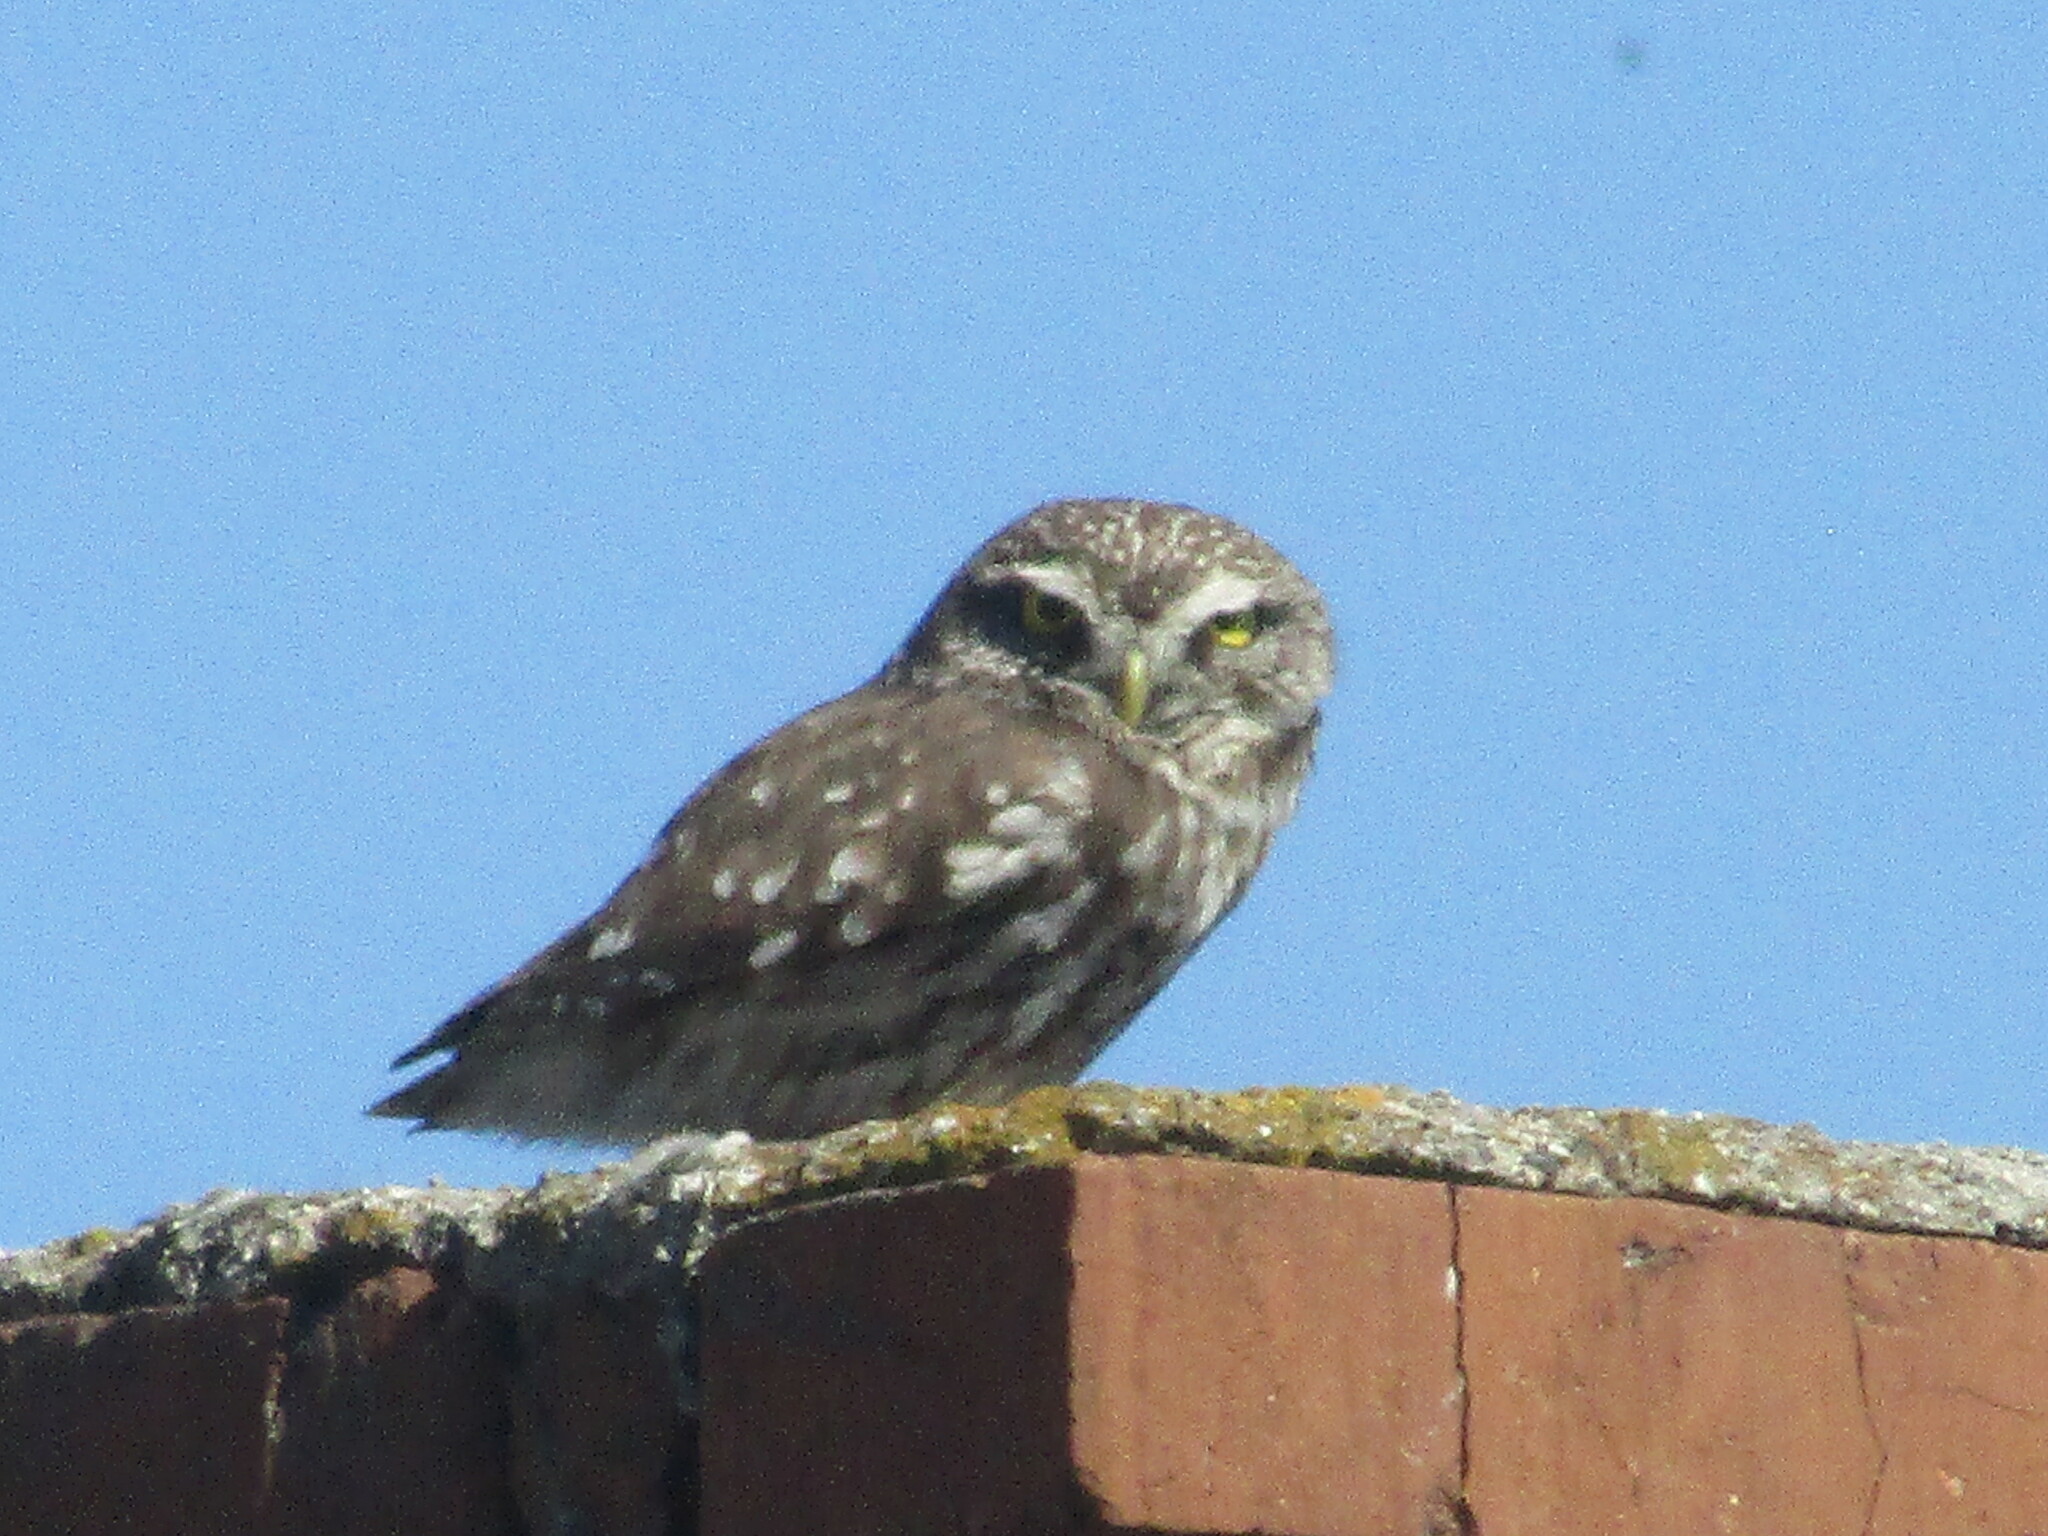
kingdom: Animalia
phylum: Chordata
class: Aves
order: Strigiformes
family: Strigidae
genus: Athene
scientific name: Athene noctua
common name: Little owl
